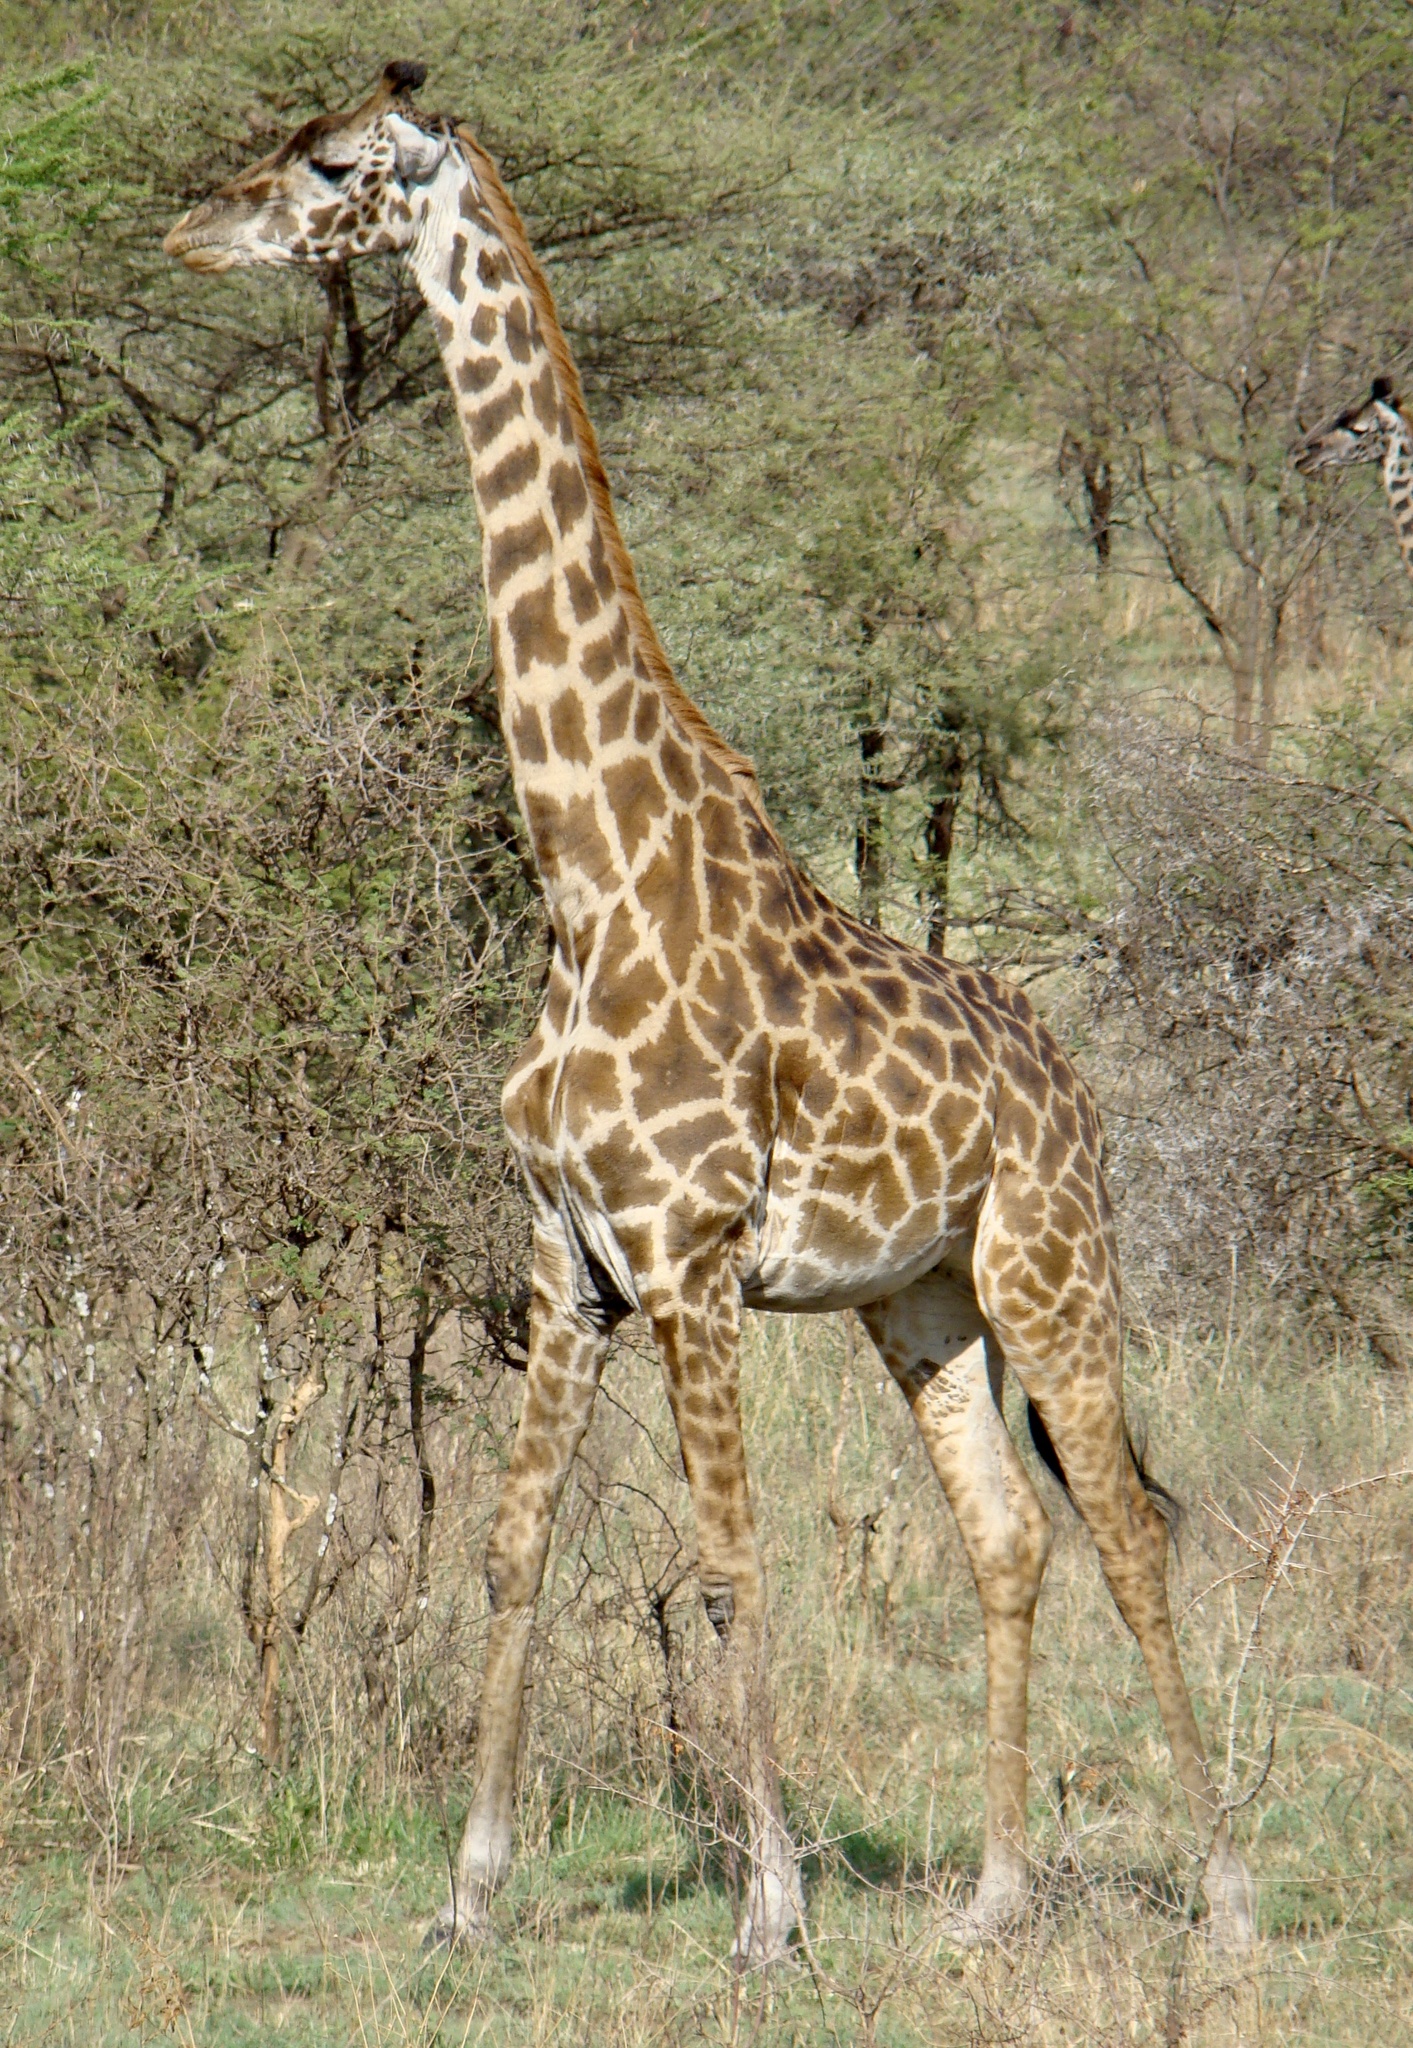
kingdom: Animalia
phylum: Chordata
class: Mammalia
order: Artiodactyla
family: Giraffidae
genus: Giraffa
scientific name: Giraffa tippelskirchi
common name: Masai giraffe
